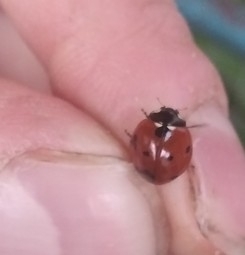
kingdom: Animalia
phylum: Arthropoda
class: Insecta
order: Coleoptera
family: Coccinellidae
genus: Coccinella
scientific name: Coccinella septempunctata
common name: Sevenspotted lady beetle
